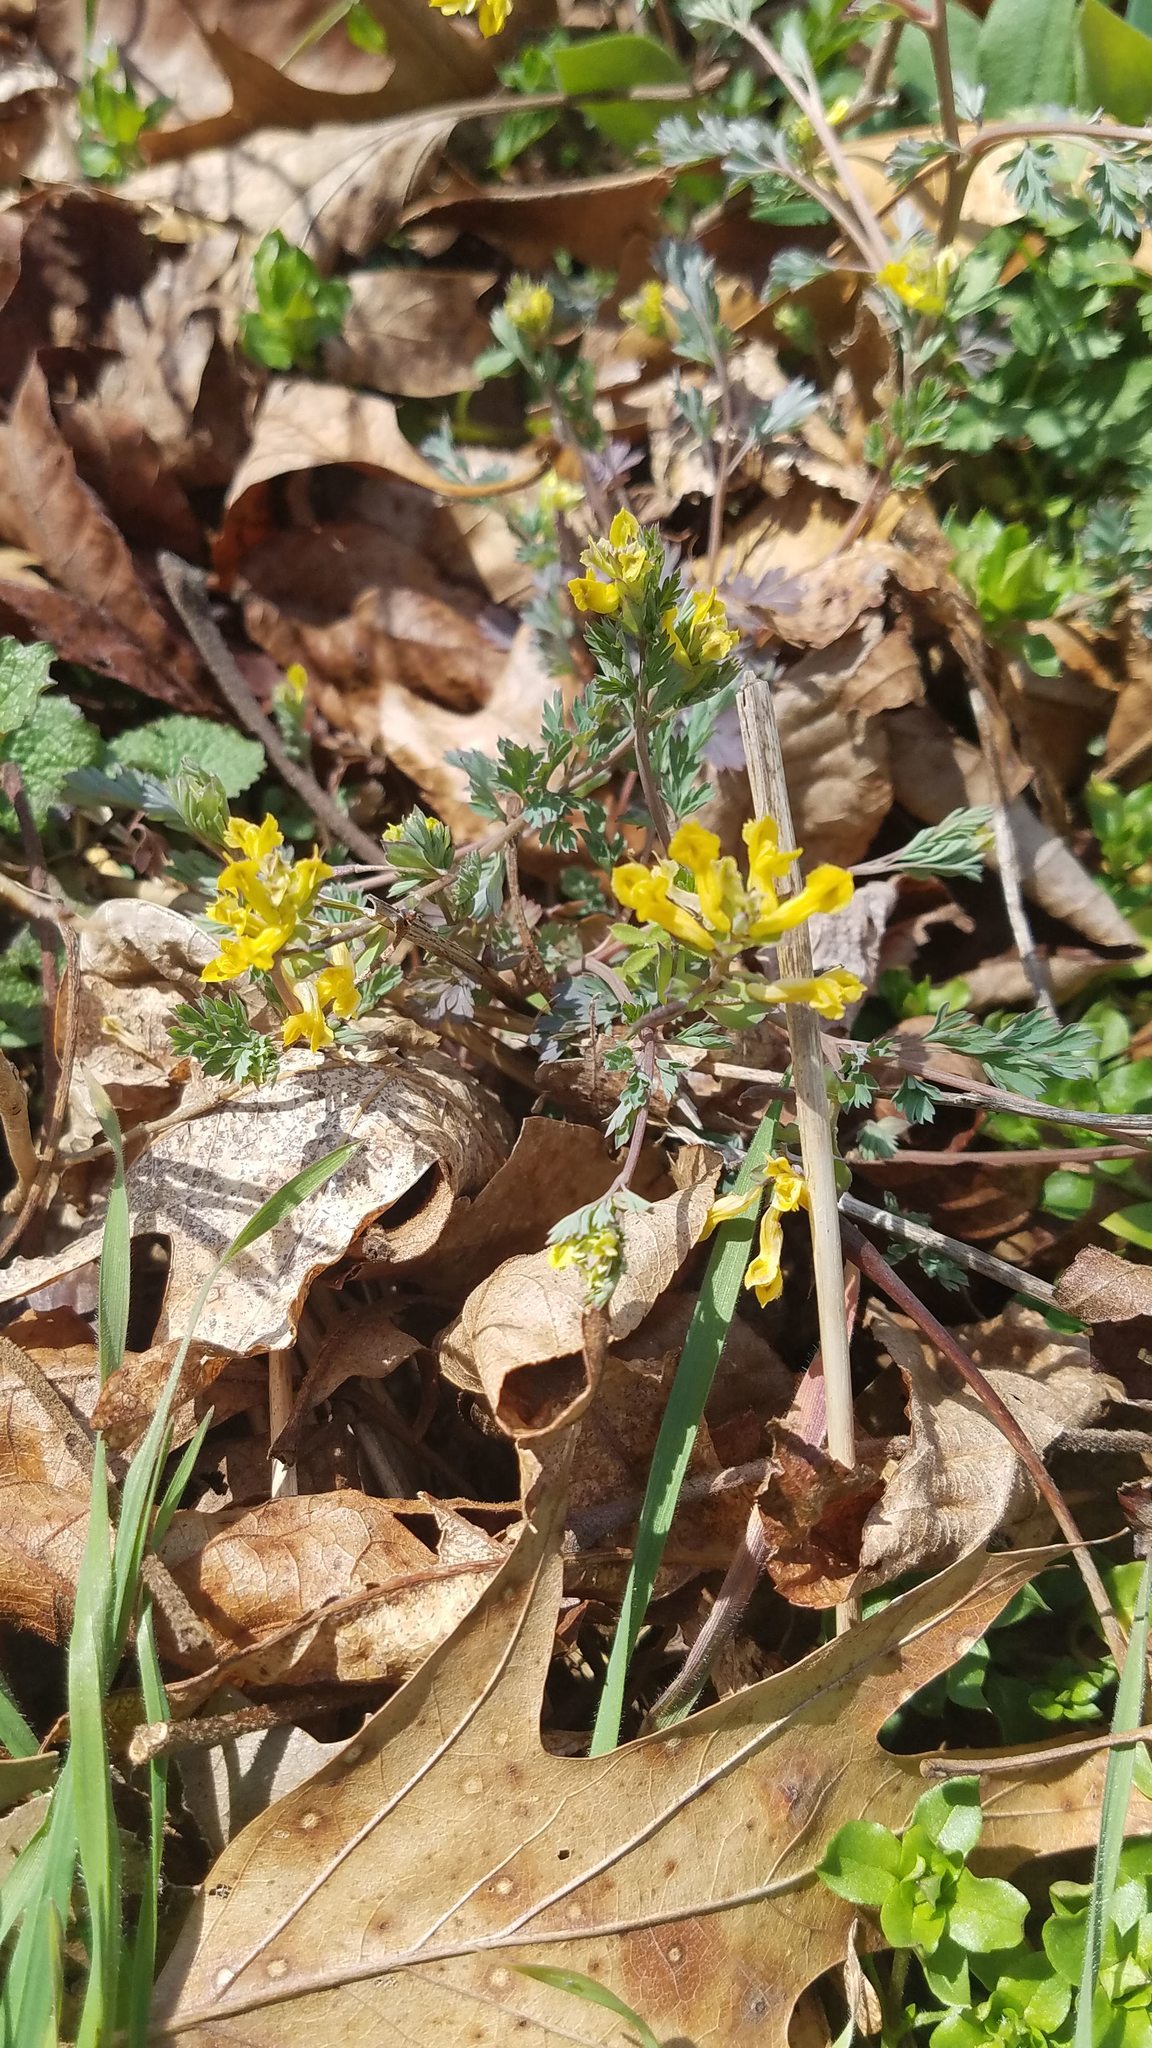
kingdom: Plantae
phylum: Tracheophyta
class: Magnoliopsida
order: Ranunculales
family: Papaveraceae
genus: Corydalis
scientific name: Corydalis flavula
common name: Yellow corydalis
